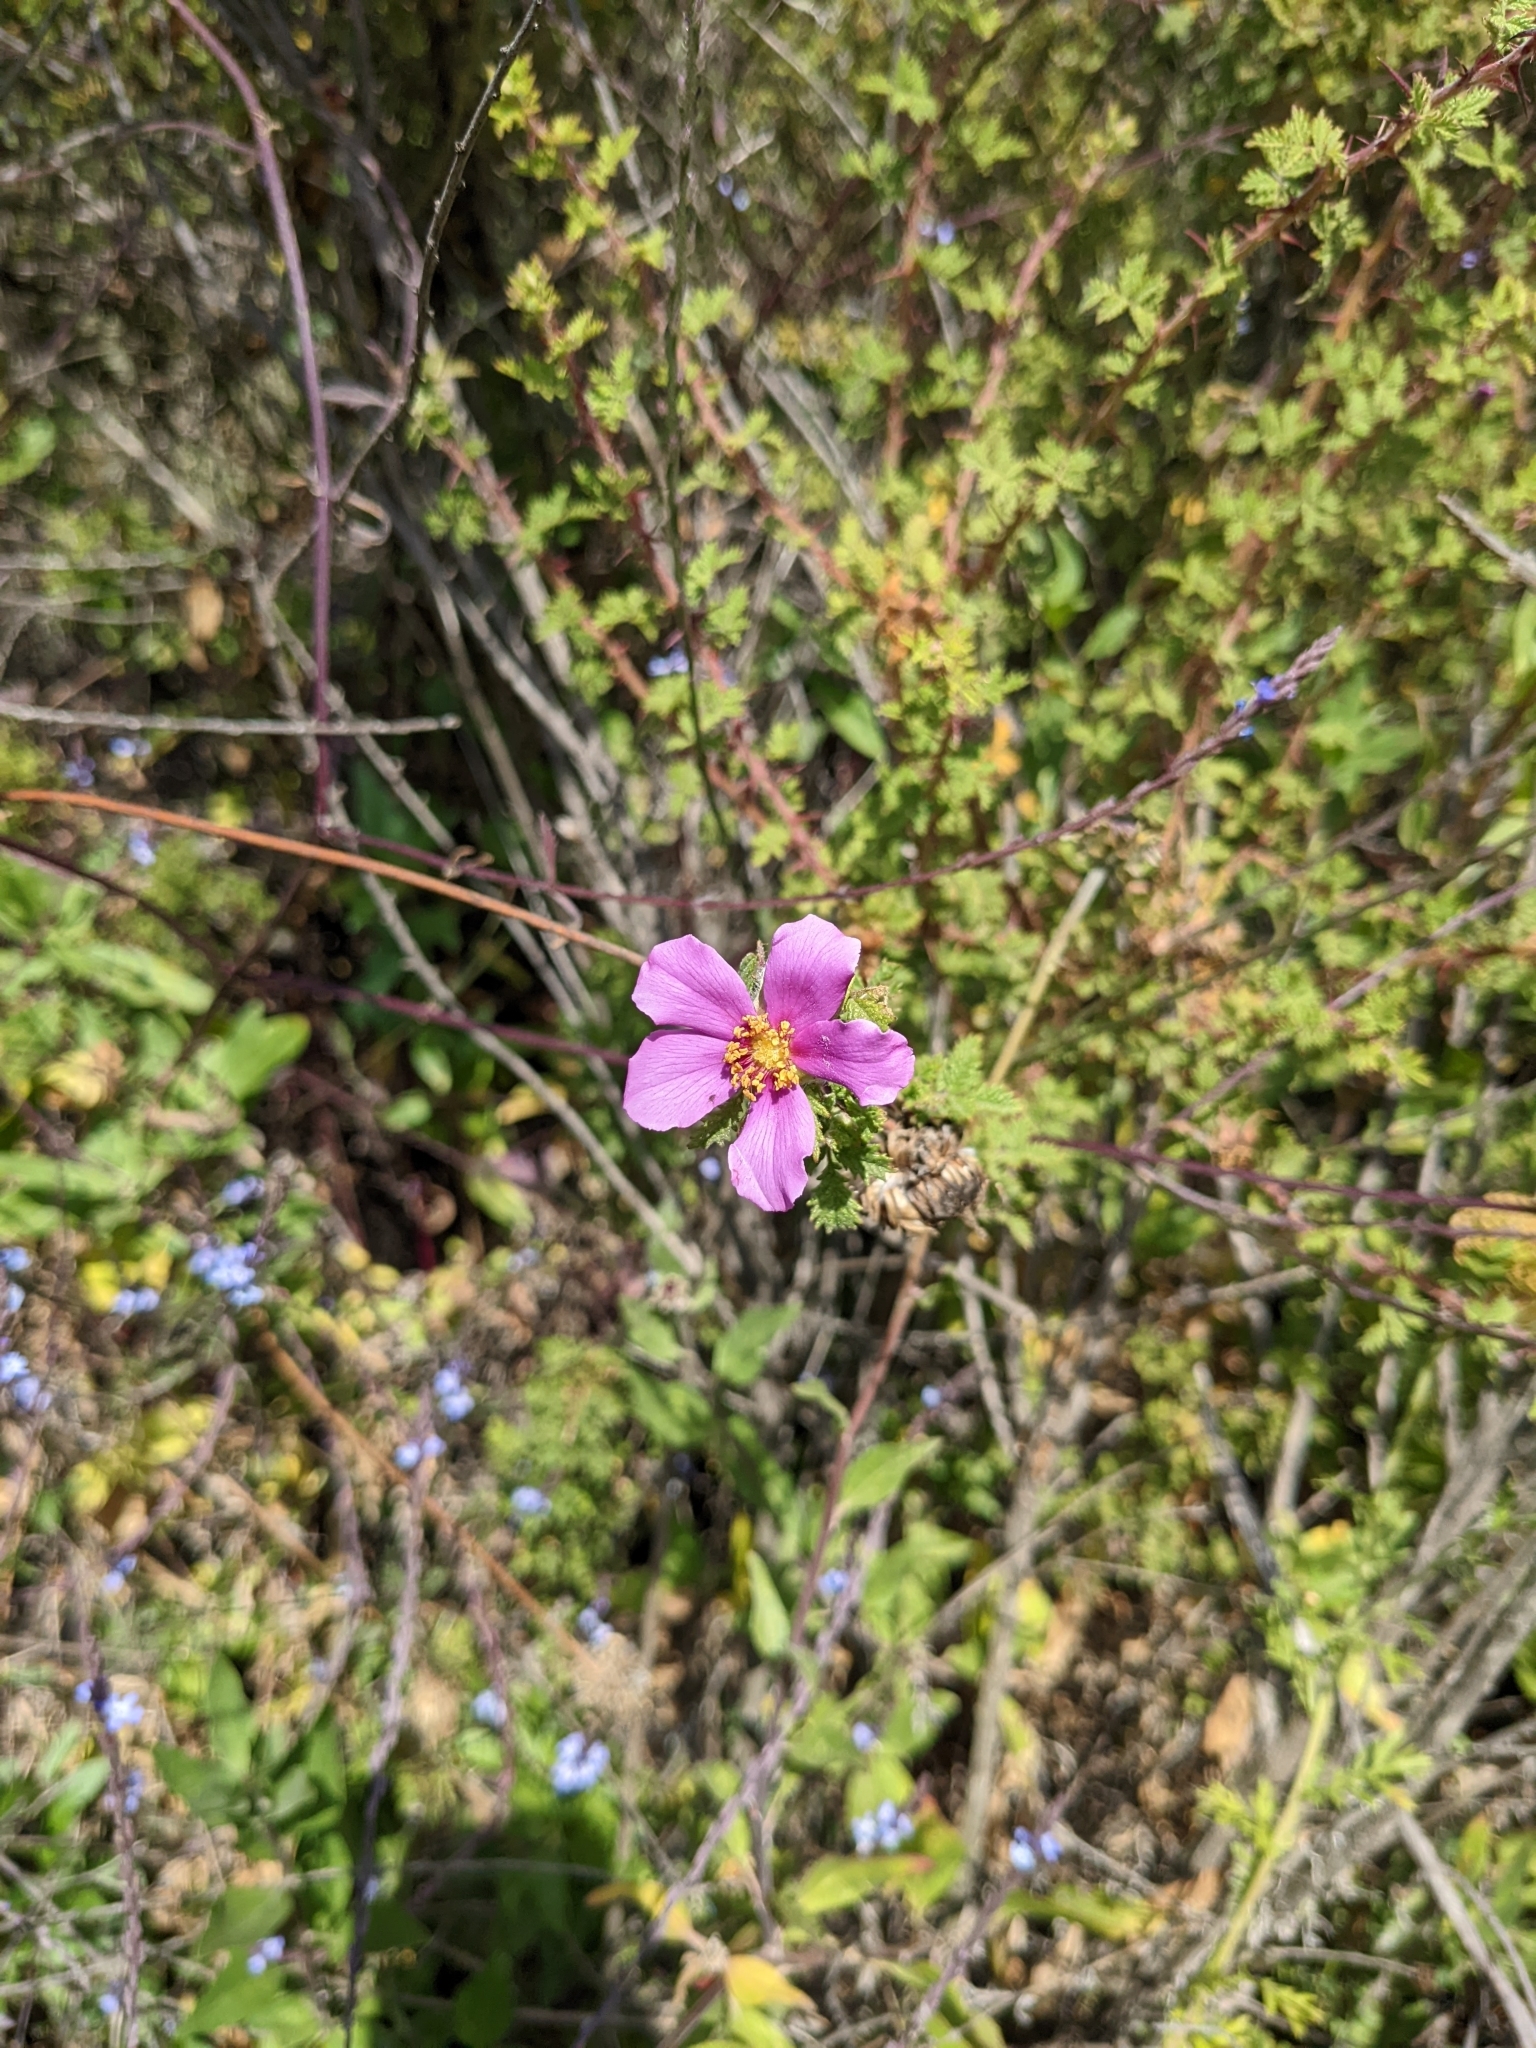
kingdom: Plantae
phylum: Tracheophyta
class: Magnoliopsida
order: Rosales
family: Rosaceae
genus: Rosa
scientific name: Rosa minutifolia
